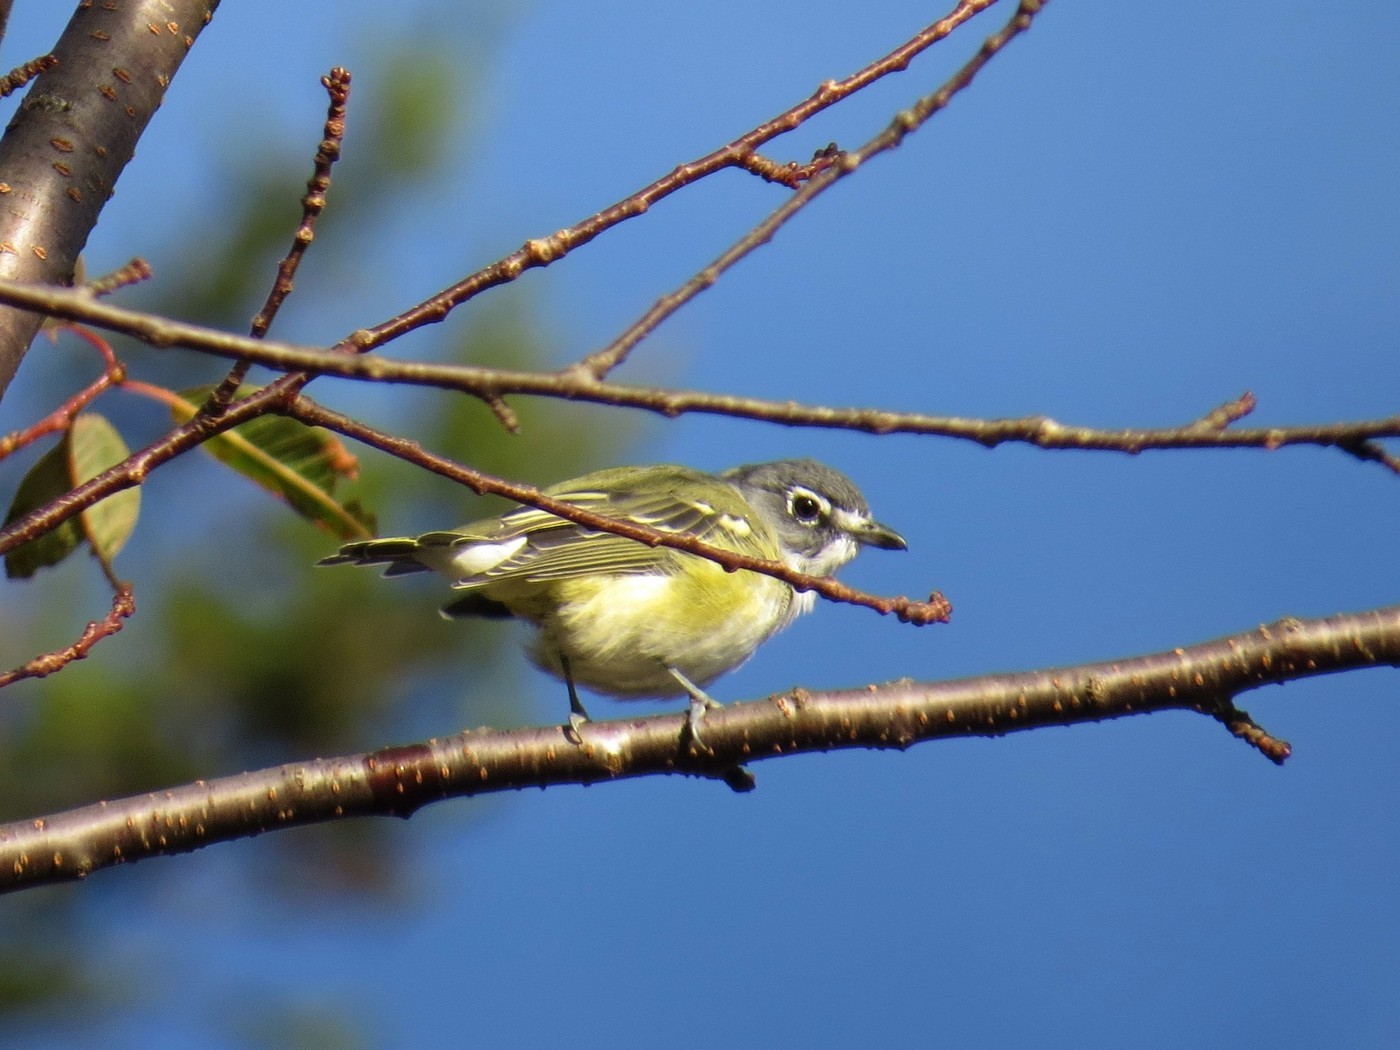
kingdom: Animalia
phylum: Chordata
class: Aves
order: Passeriformes
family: Vireonidae
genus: Vireo
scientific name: Vireo solitarius
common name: Blue-headed vireo
